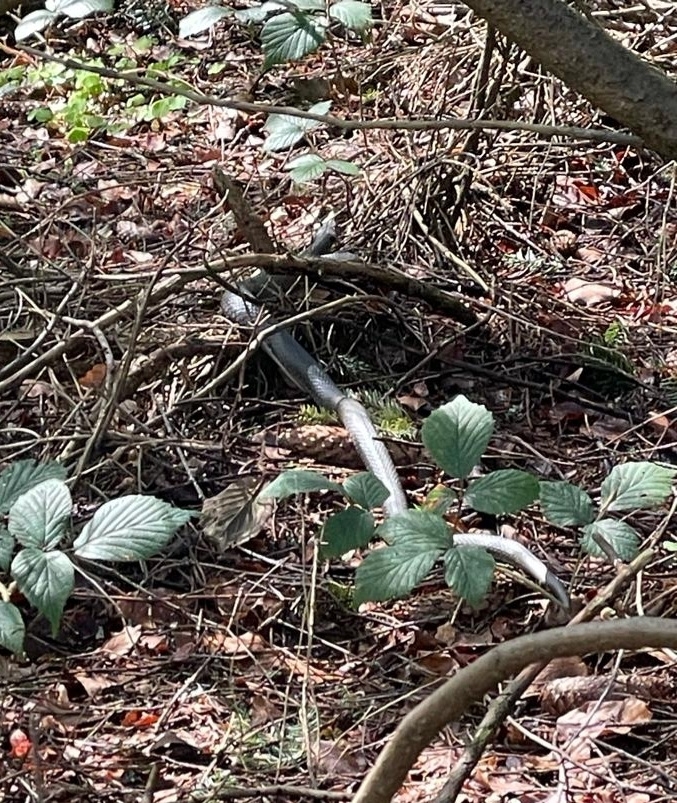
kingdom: Animalia
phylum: Chordata
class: Squamata
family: Colubridae
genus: Natrix
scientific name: Natrix natrix
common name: Grass snake
